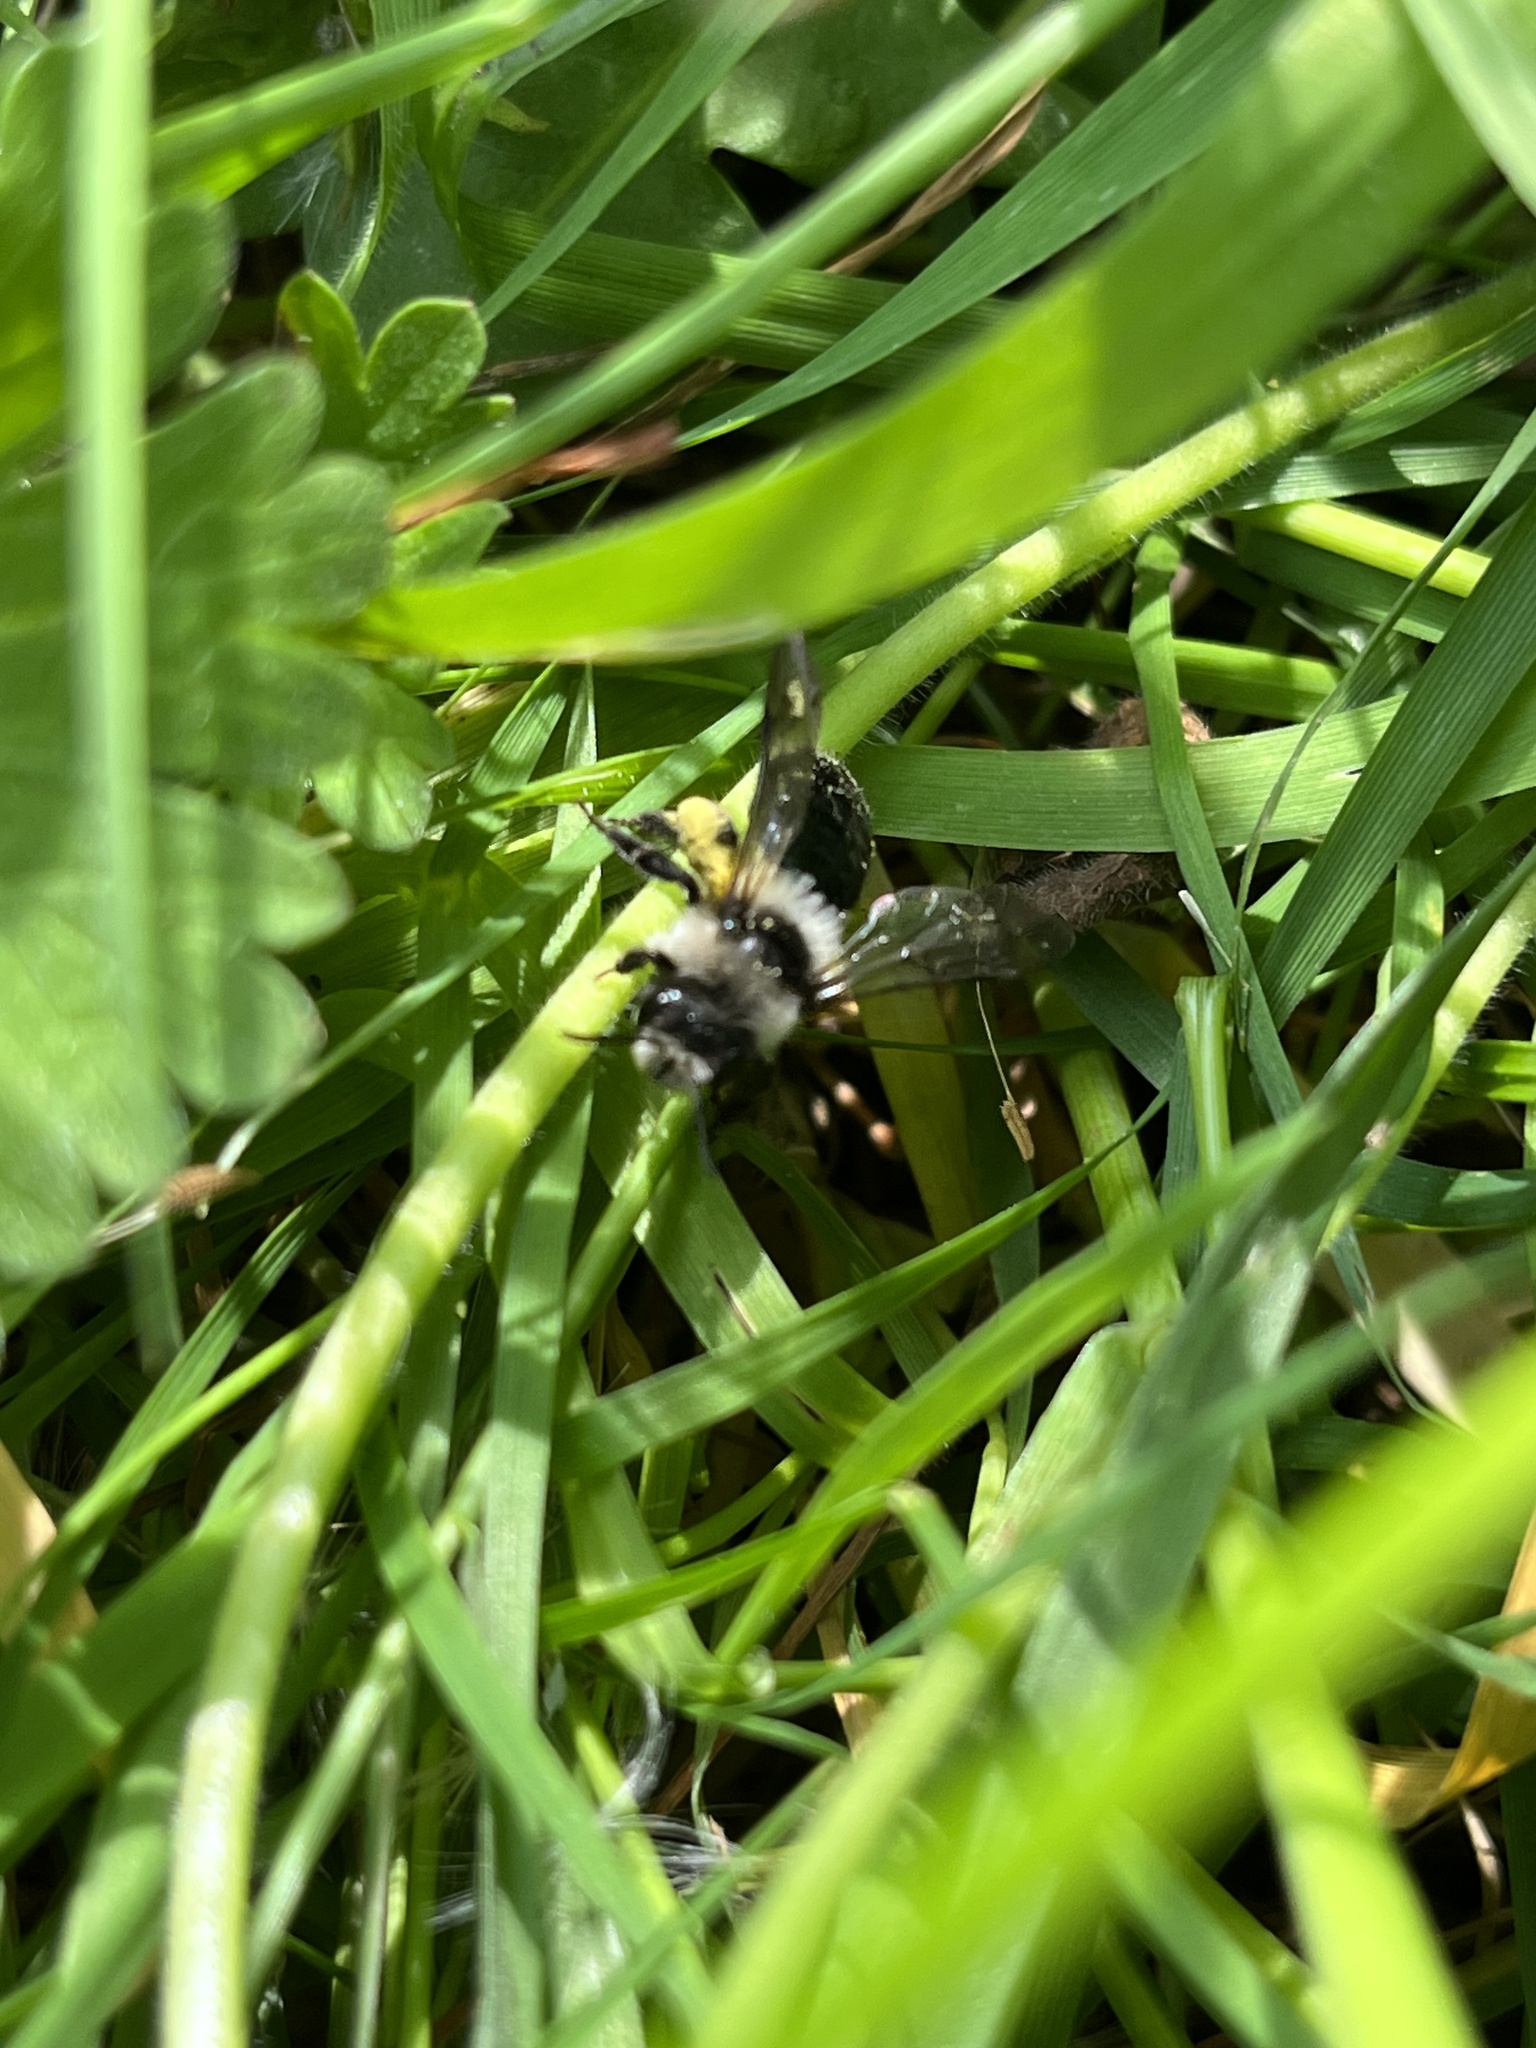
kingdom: Animalia
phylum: Arthropoda
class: Insecta
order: Hymenoptera
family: Andrenidae
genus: Andrena
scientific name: Andrena cineraria
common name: Ashy mining bee
